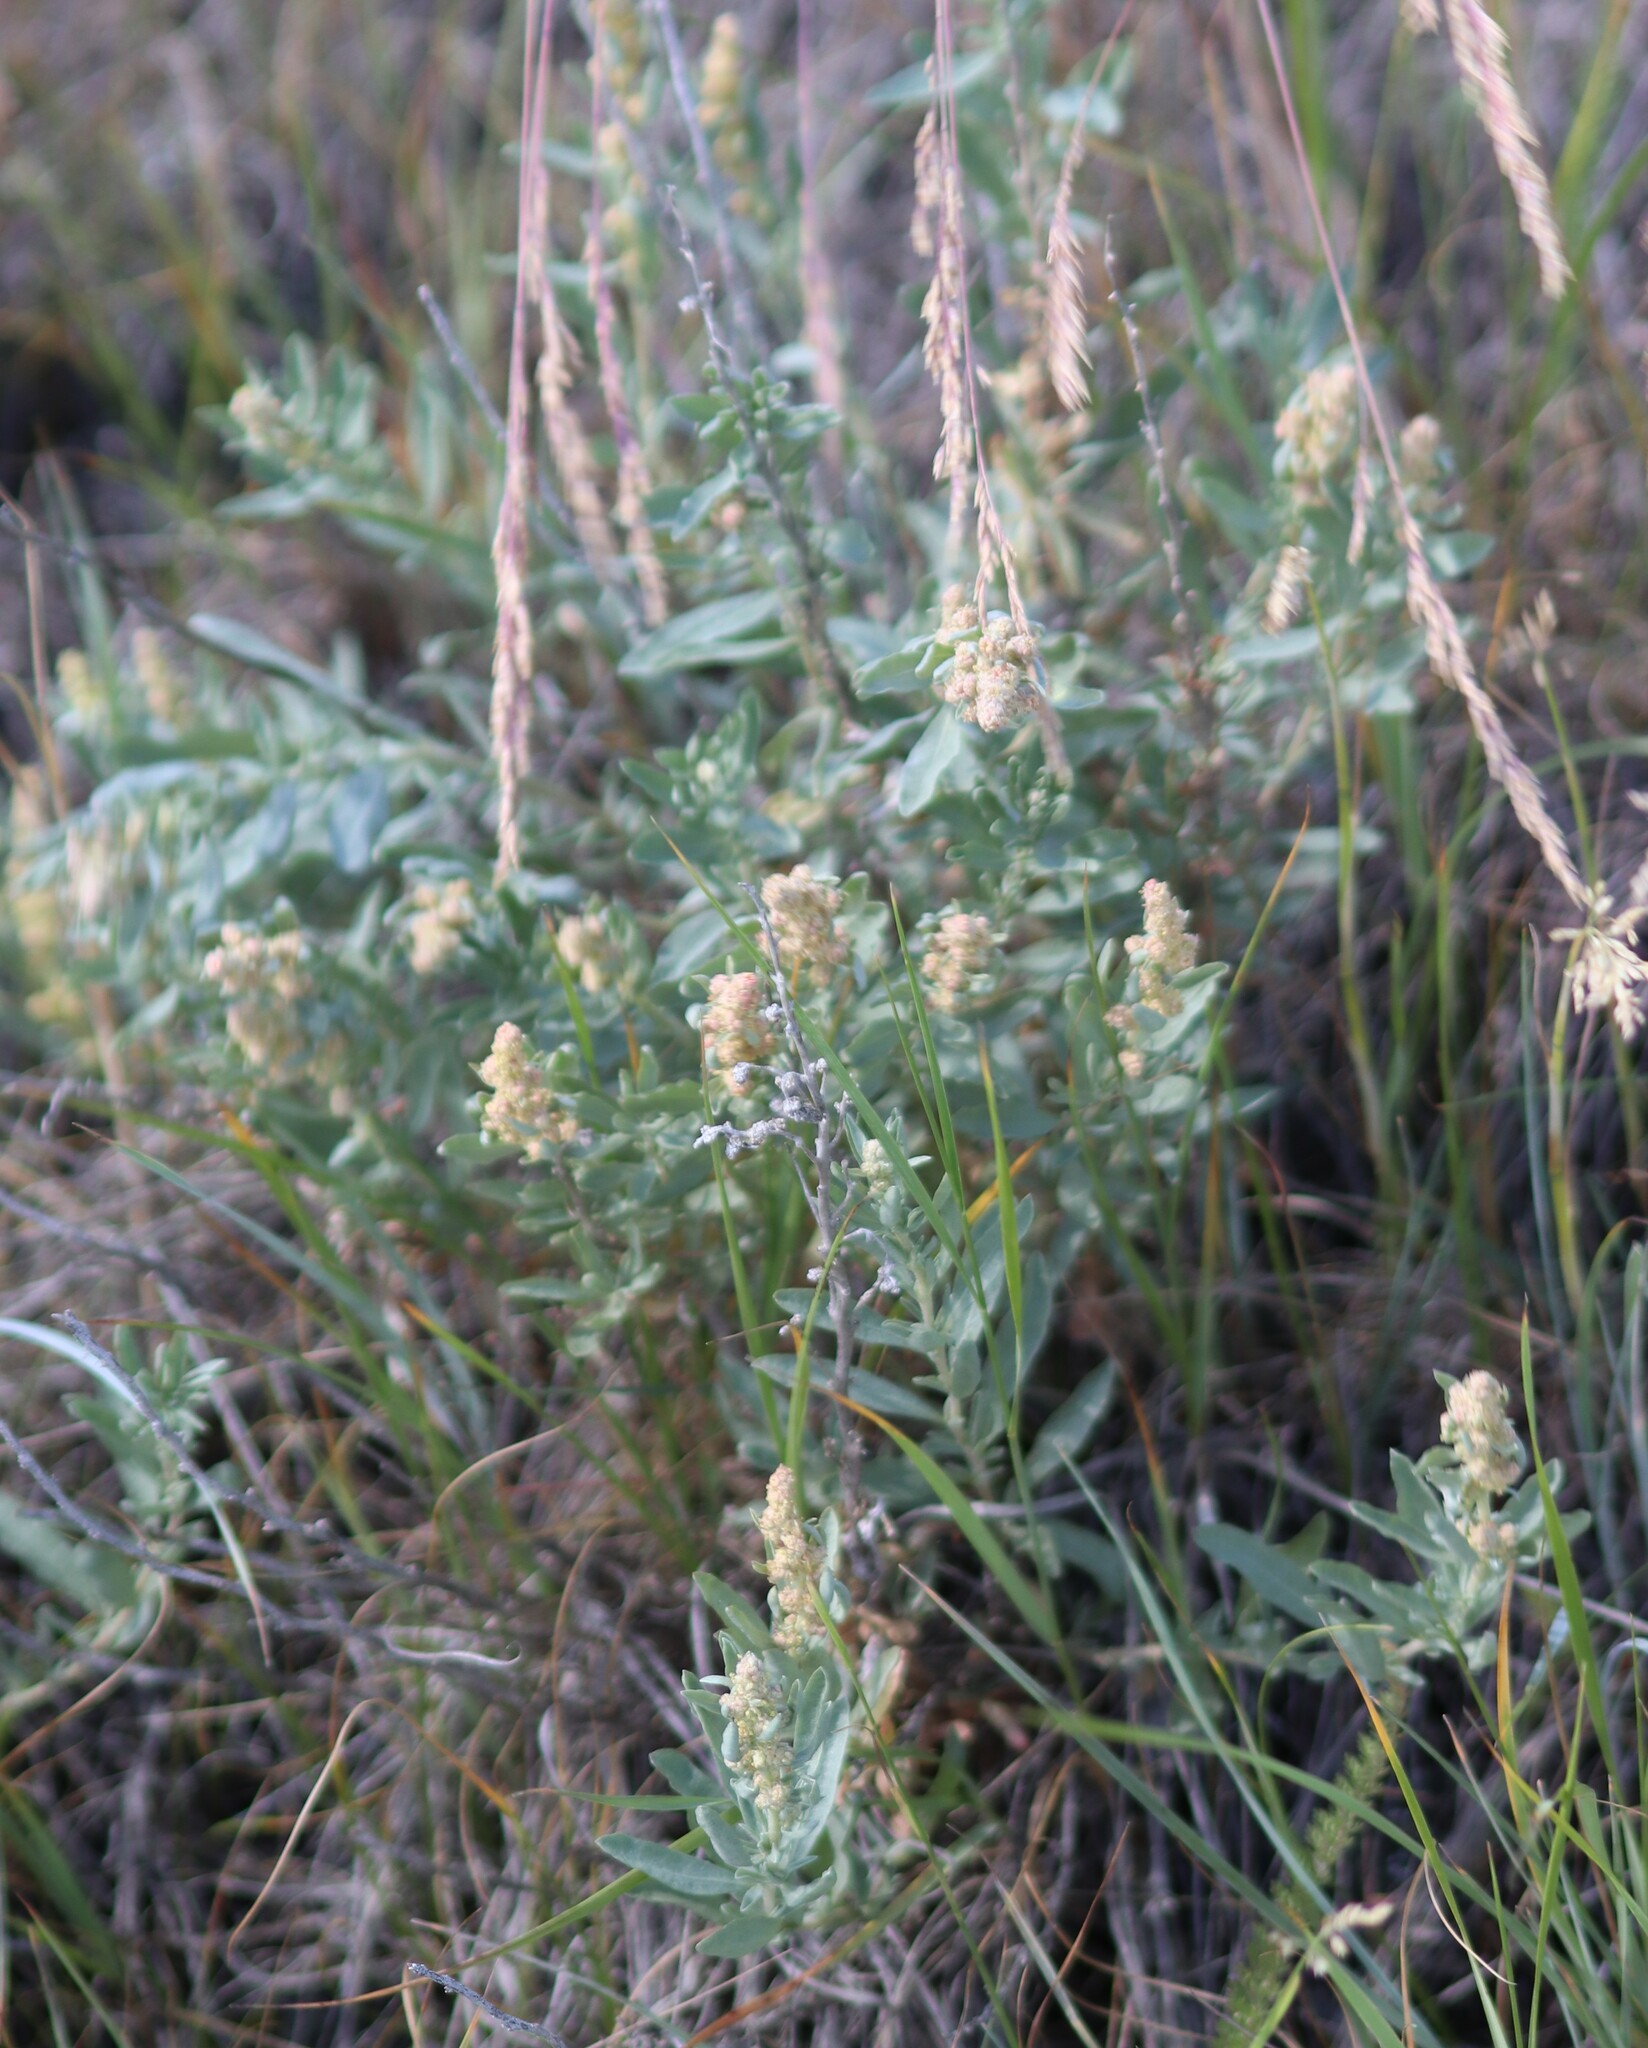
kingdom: Plantae
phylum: Tracheophyta
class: Magnoliopsida
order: Asterales
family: Asteraceae
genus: Artemisia
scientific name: Artemisia ludoviciana
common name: Western mugwort
